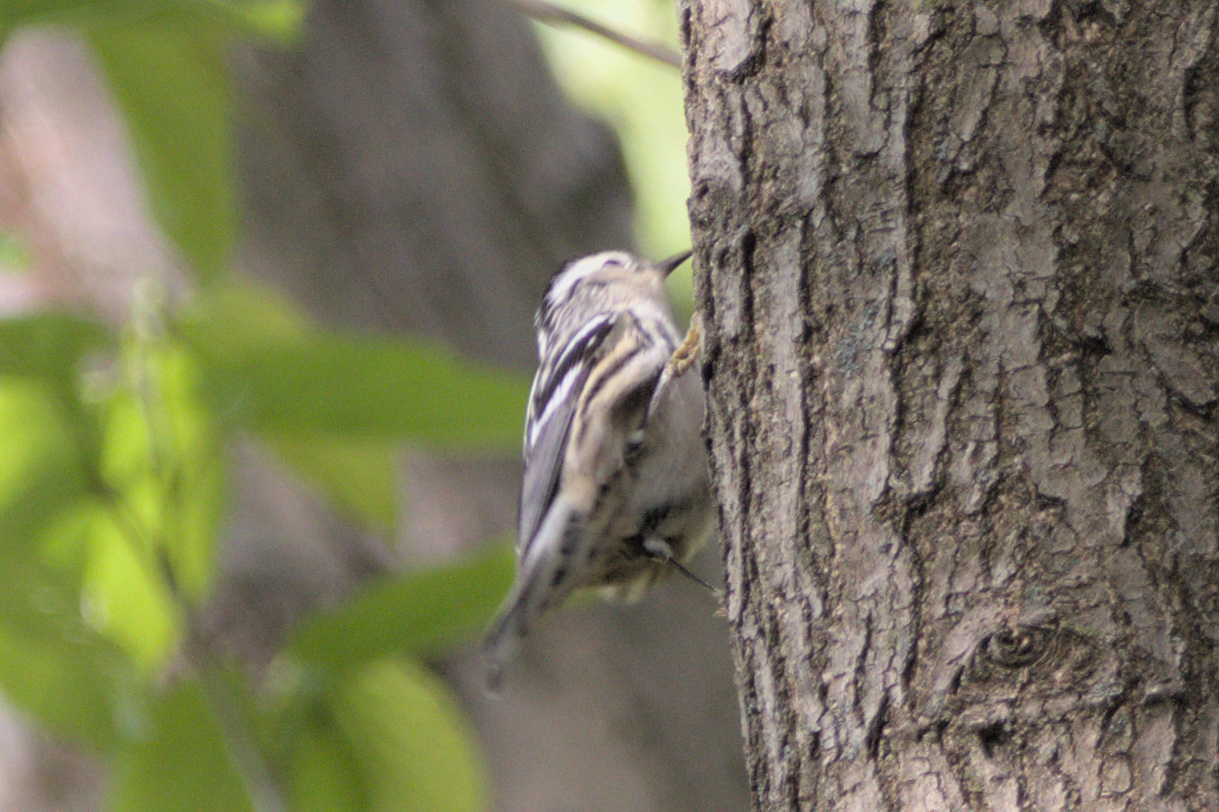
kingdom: Animalia
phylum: Chordata
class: Aves
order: Passeriformes
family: Parulidae
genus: Mniotilta
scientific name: Mniotilta varia
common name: Black-and-white warbler
